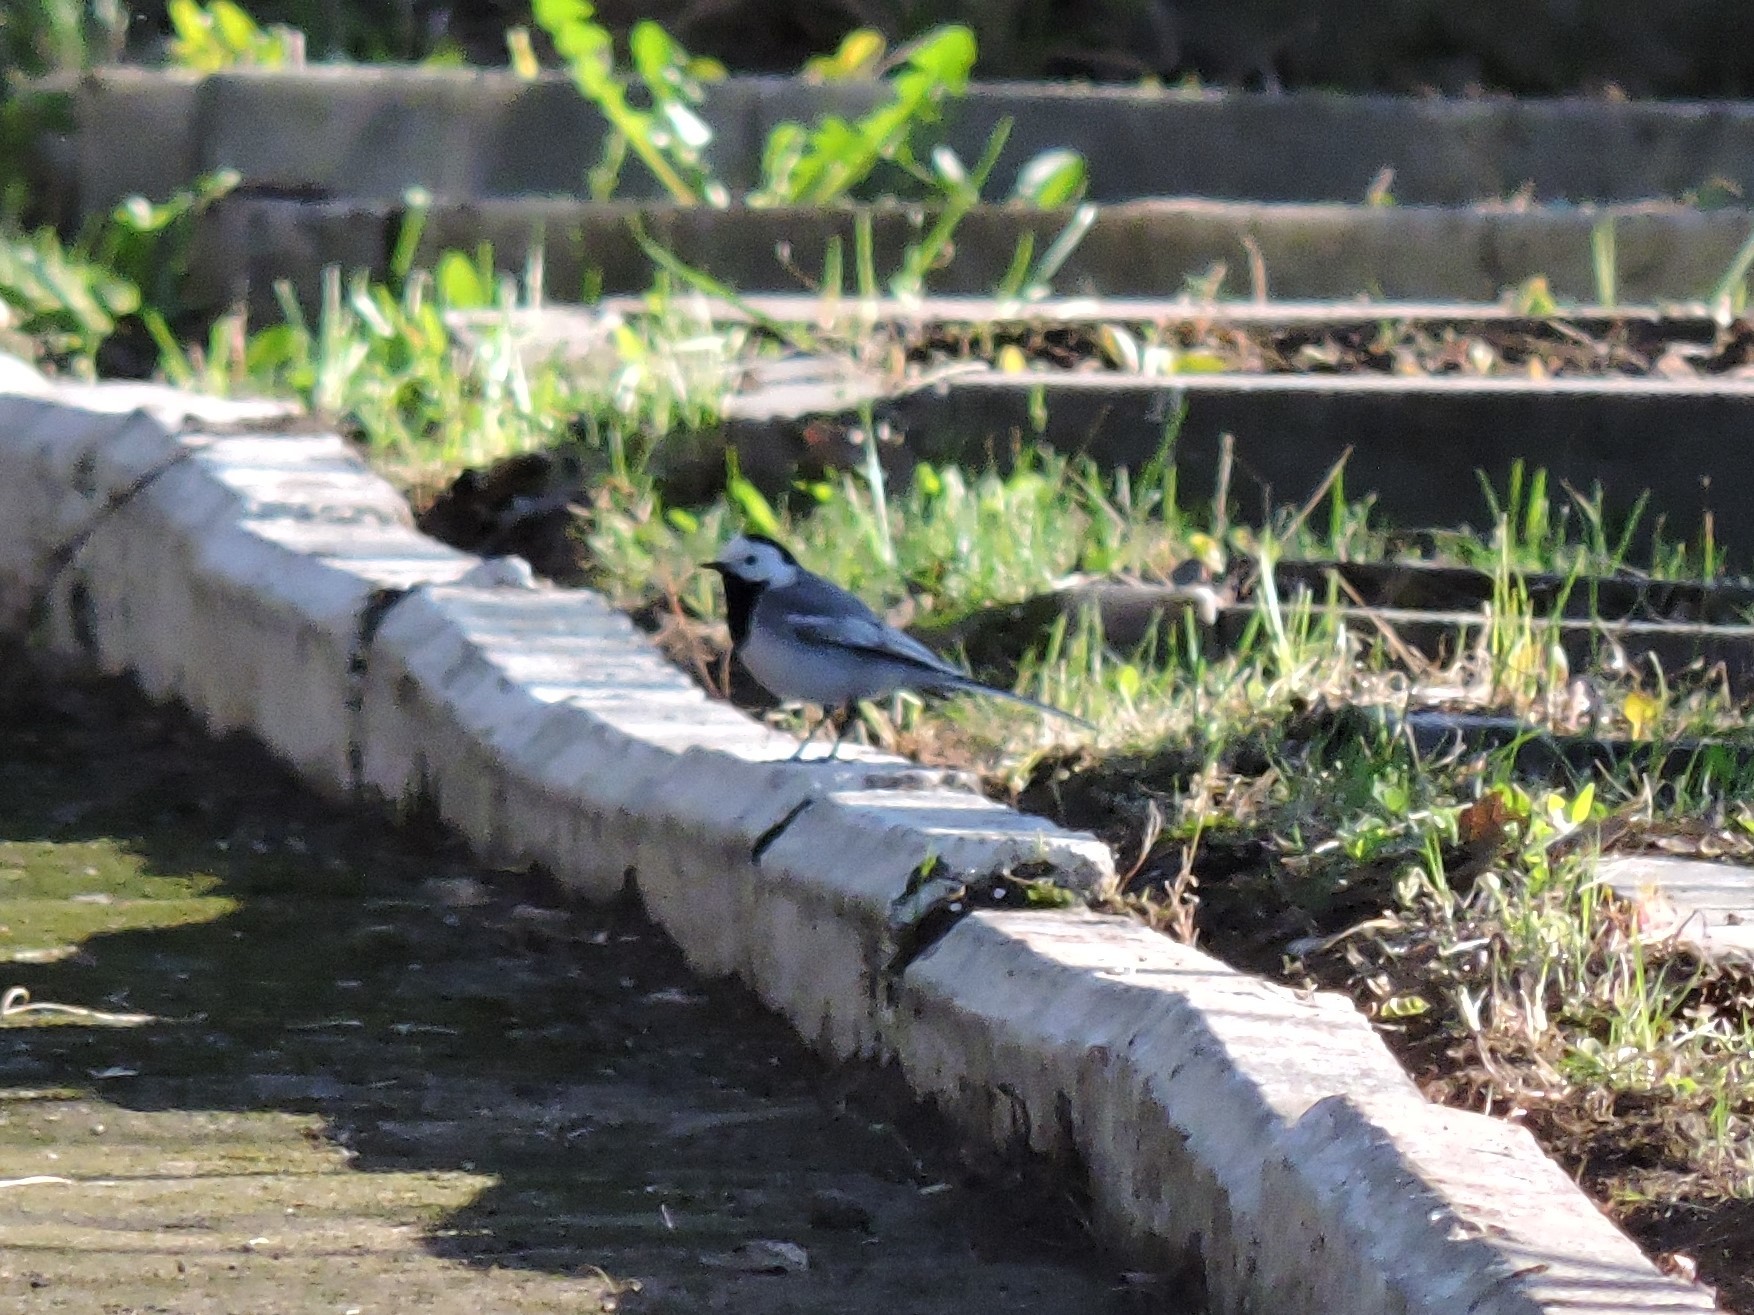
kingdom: Animalia
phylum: Chordata
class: Aves
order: Passeriformes
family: Motacillidae
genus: Motacilla
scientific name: Motacilla alba
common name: White wagtail
